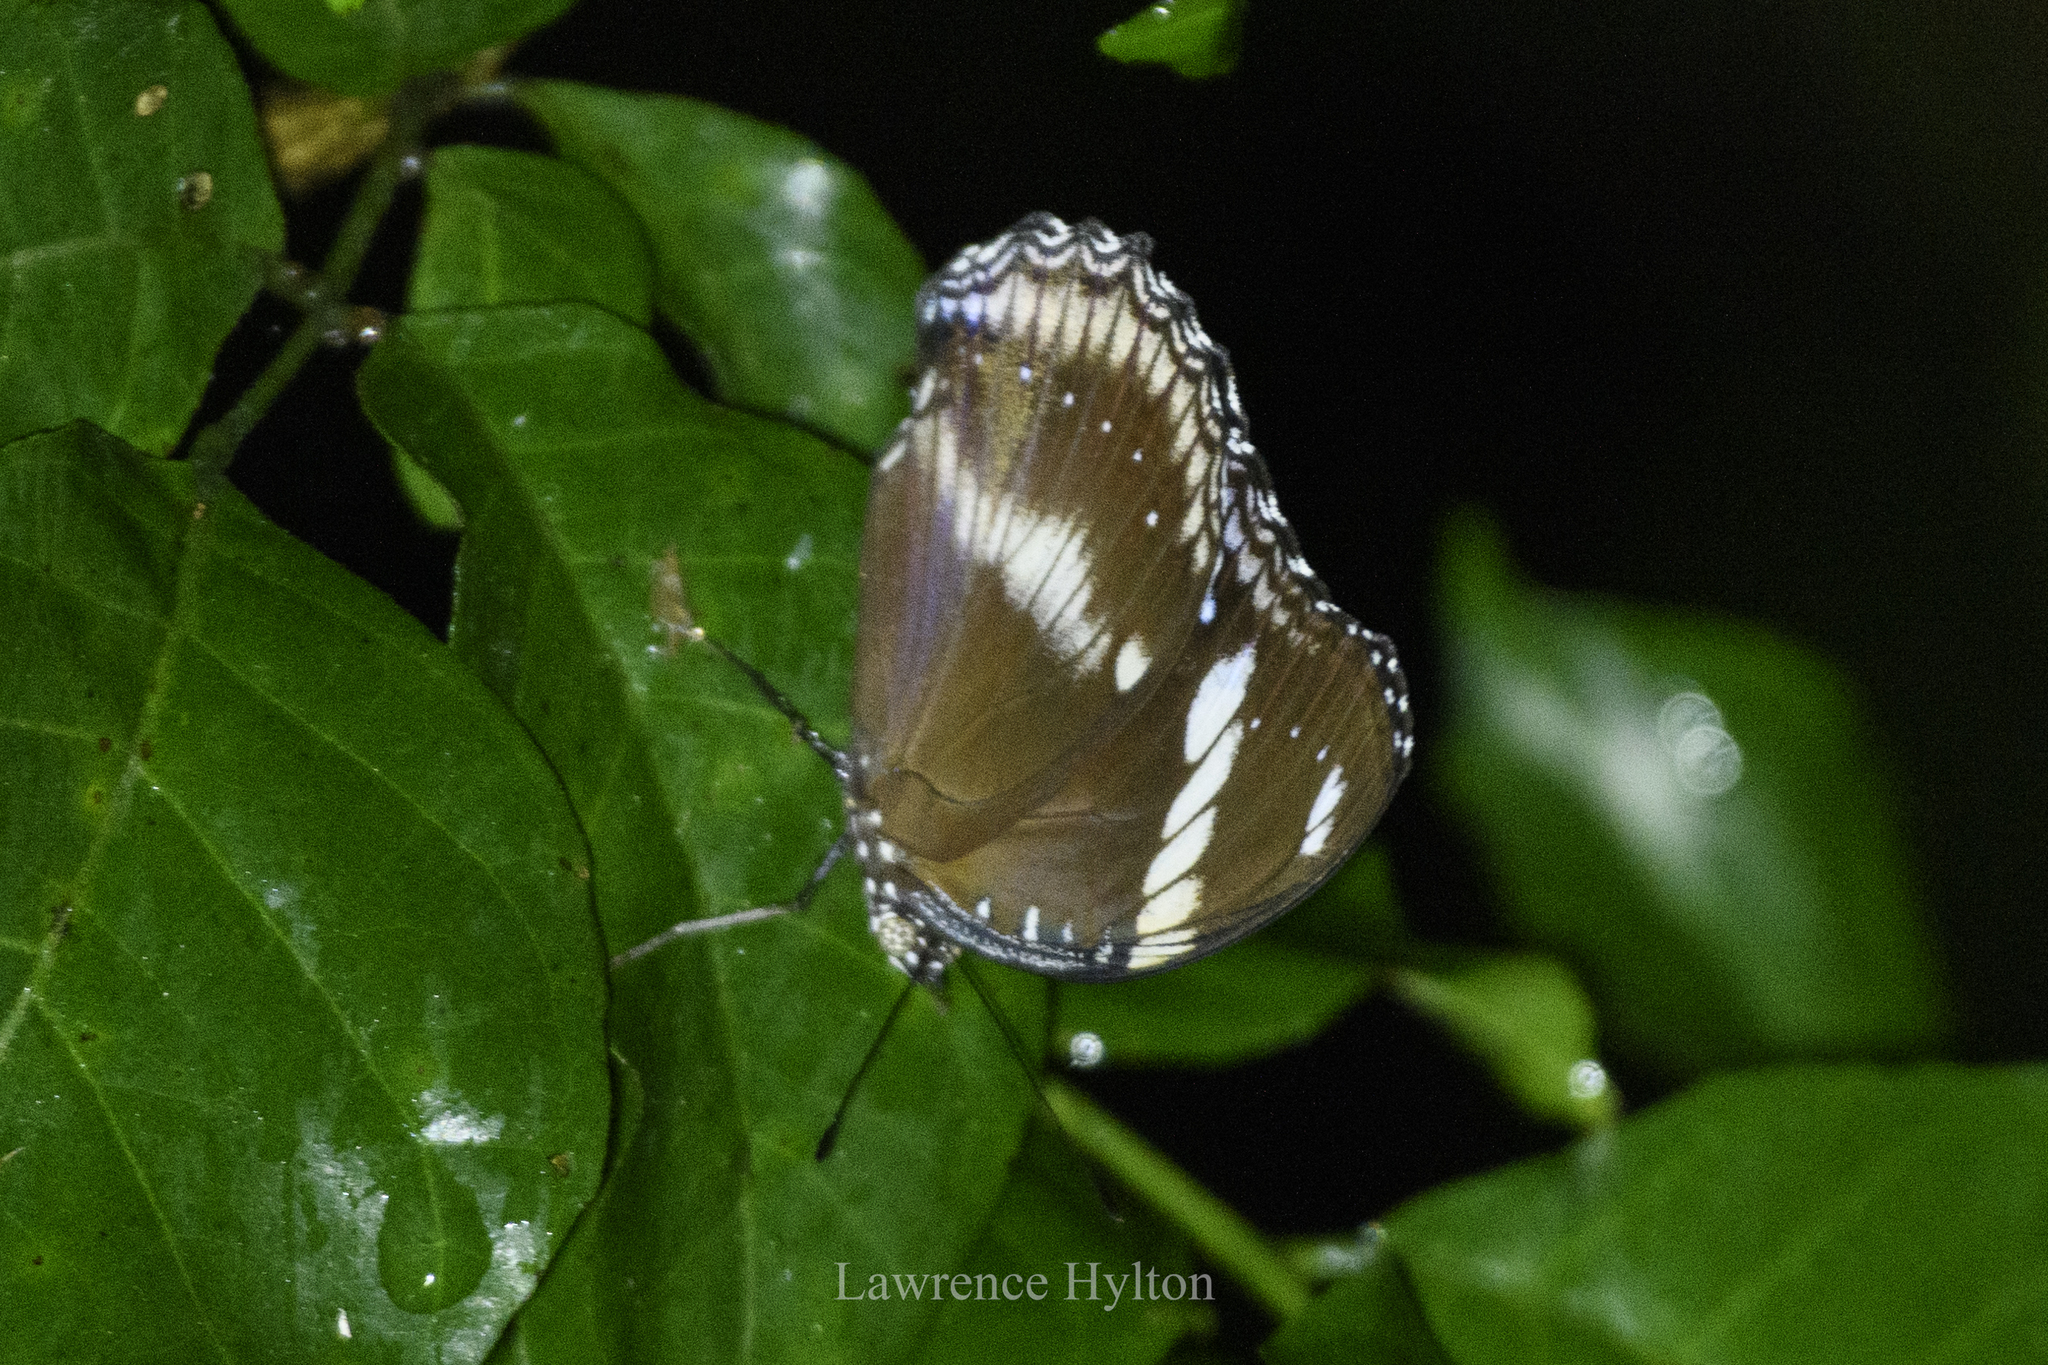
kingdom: Animalia
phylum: Arthropoda
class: Insecta
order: Lepidoptera
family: Nymphalidae
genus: Hypolimnas
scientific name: Hypolimnas bolina
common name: Great eggfly
